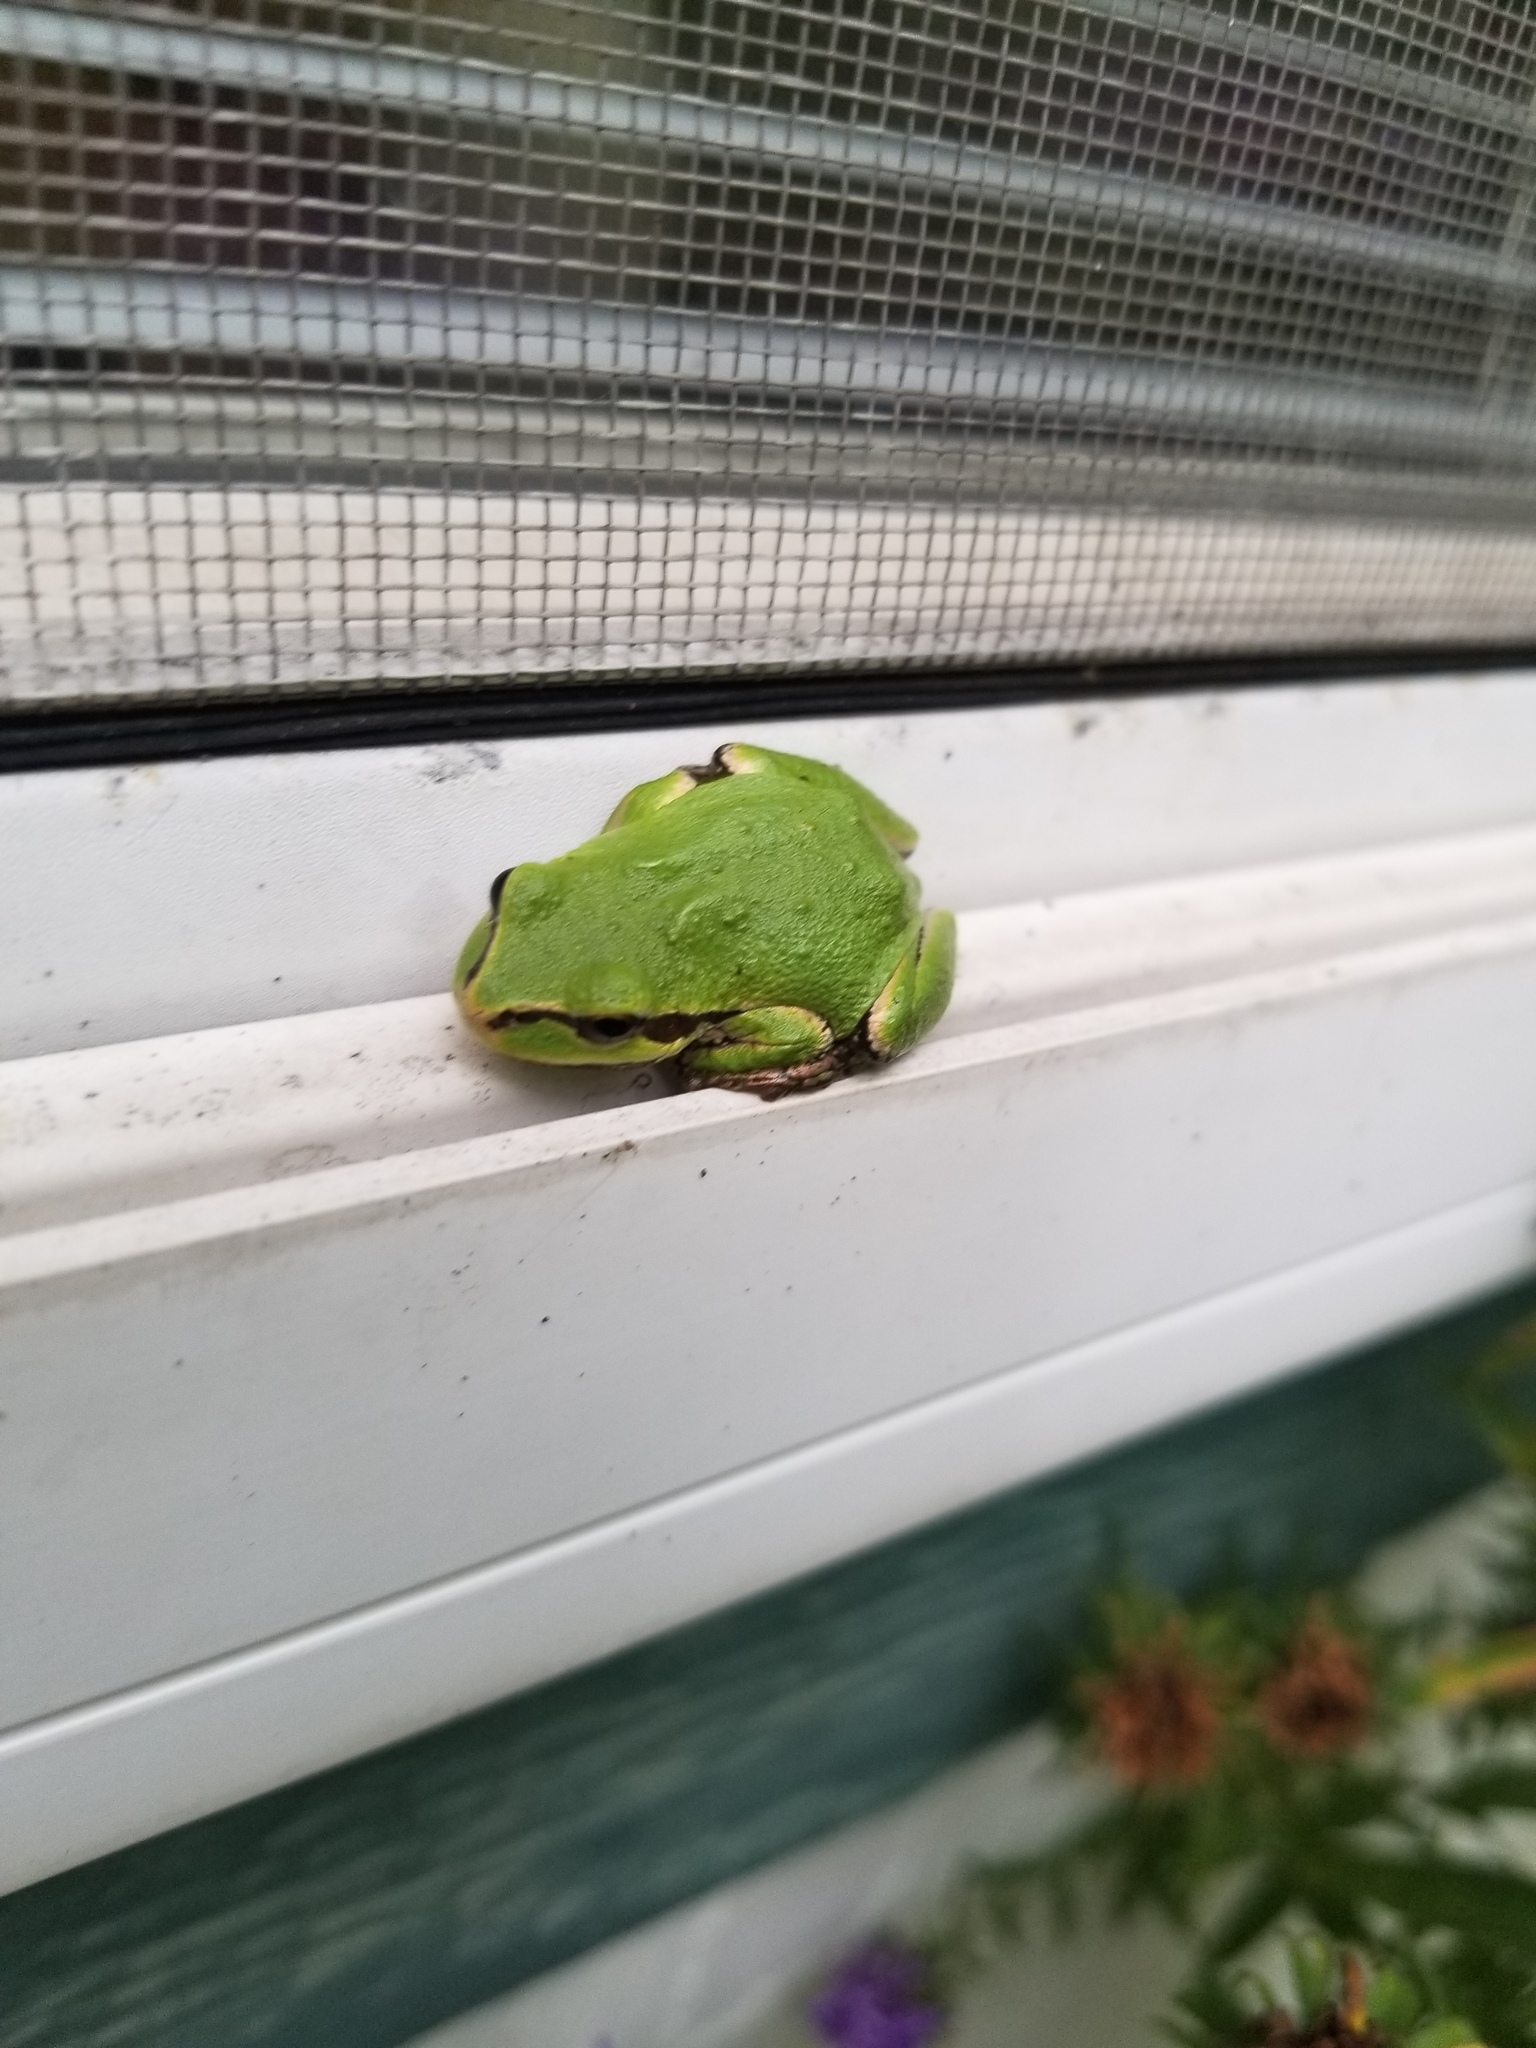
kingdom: Animalia
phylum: Chordata
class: Amphibia
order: Anura
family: Hylidae
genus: Pseudacris
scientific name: Pseudacris regilla
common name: Pacific chorus frog
